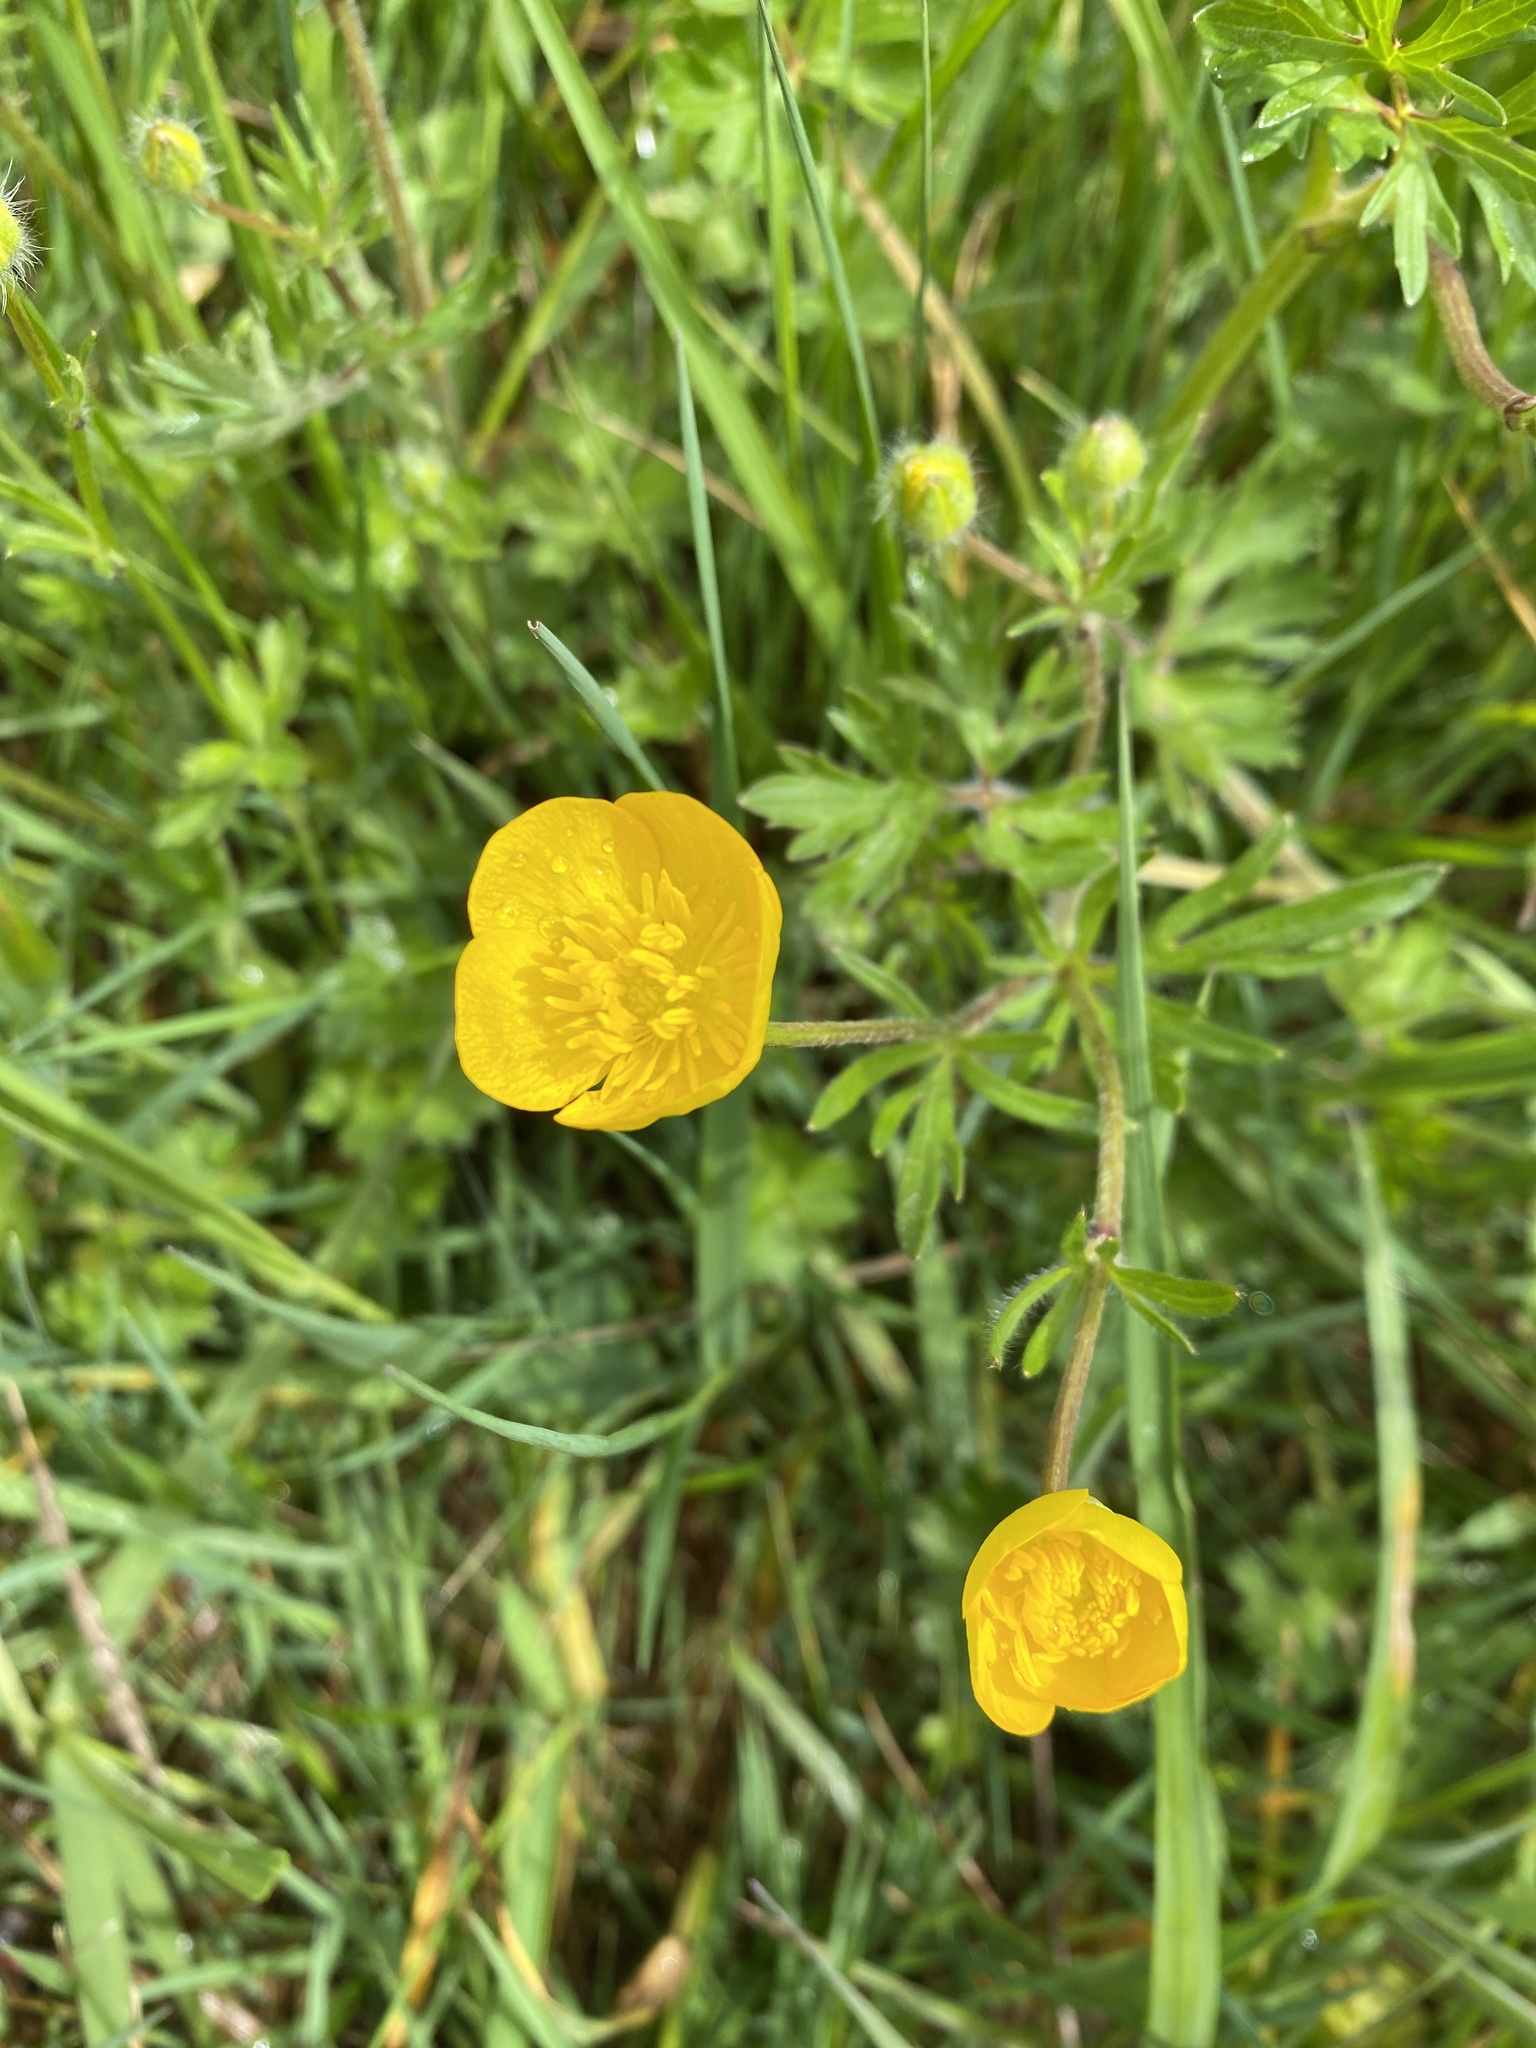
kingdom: Plantae
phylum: Tracheophyta
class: Magnoliopsida
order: Ranunculales
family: Ranunculaceae
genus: Ranunculus
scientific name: Ranunculus bulbosus
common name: Bulbous buttercup
